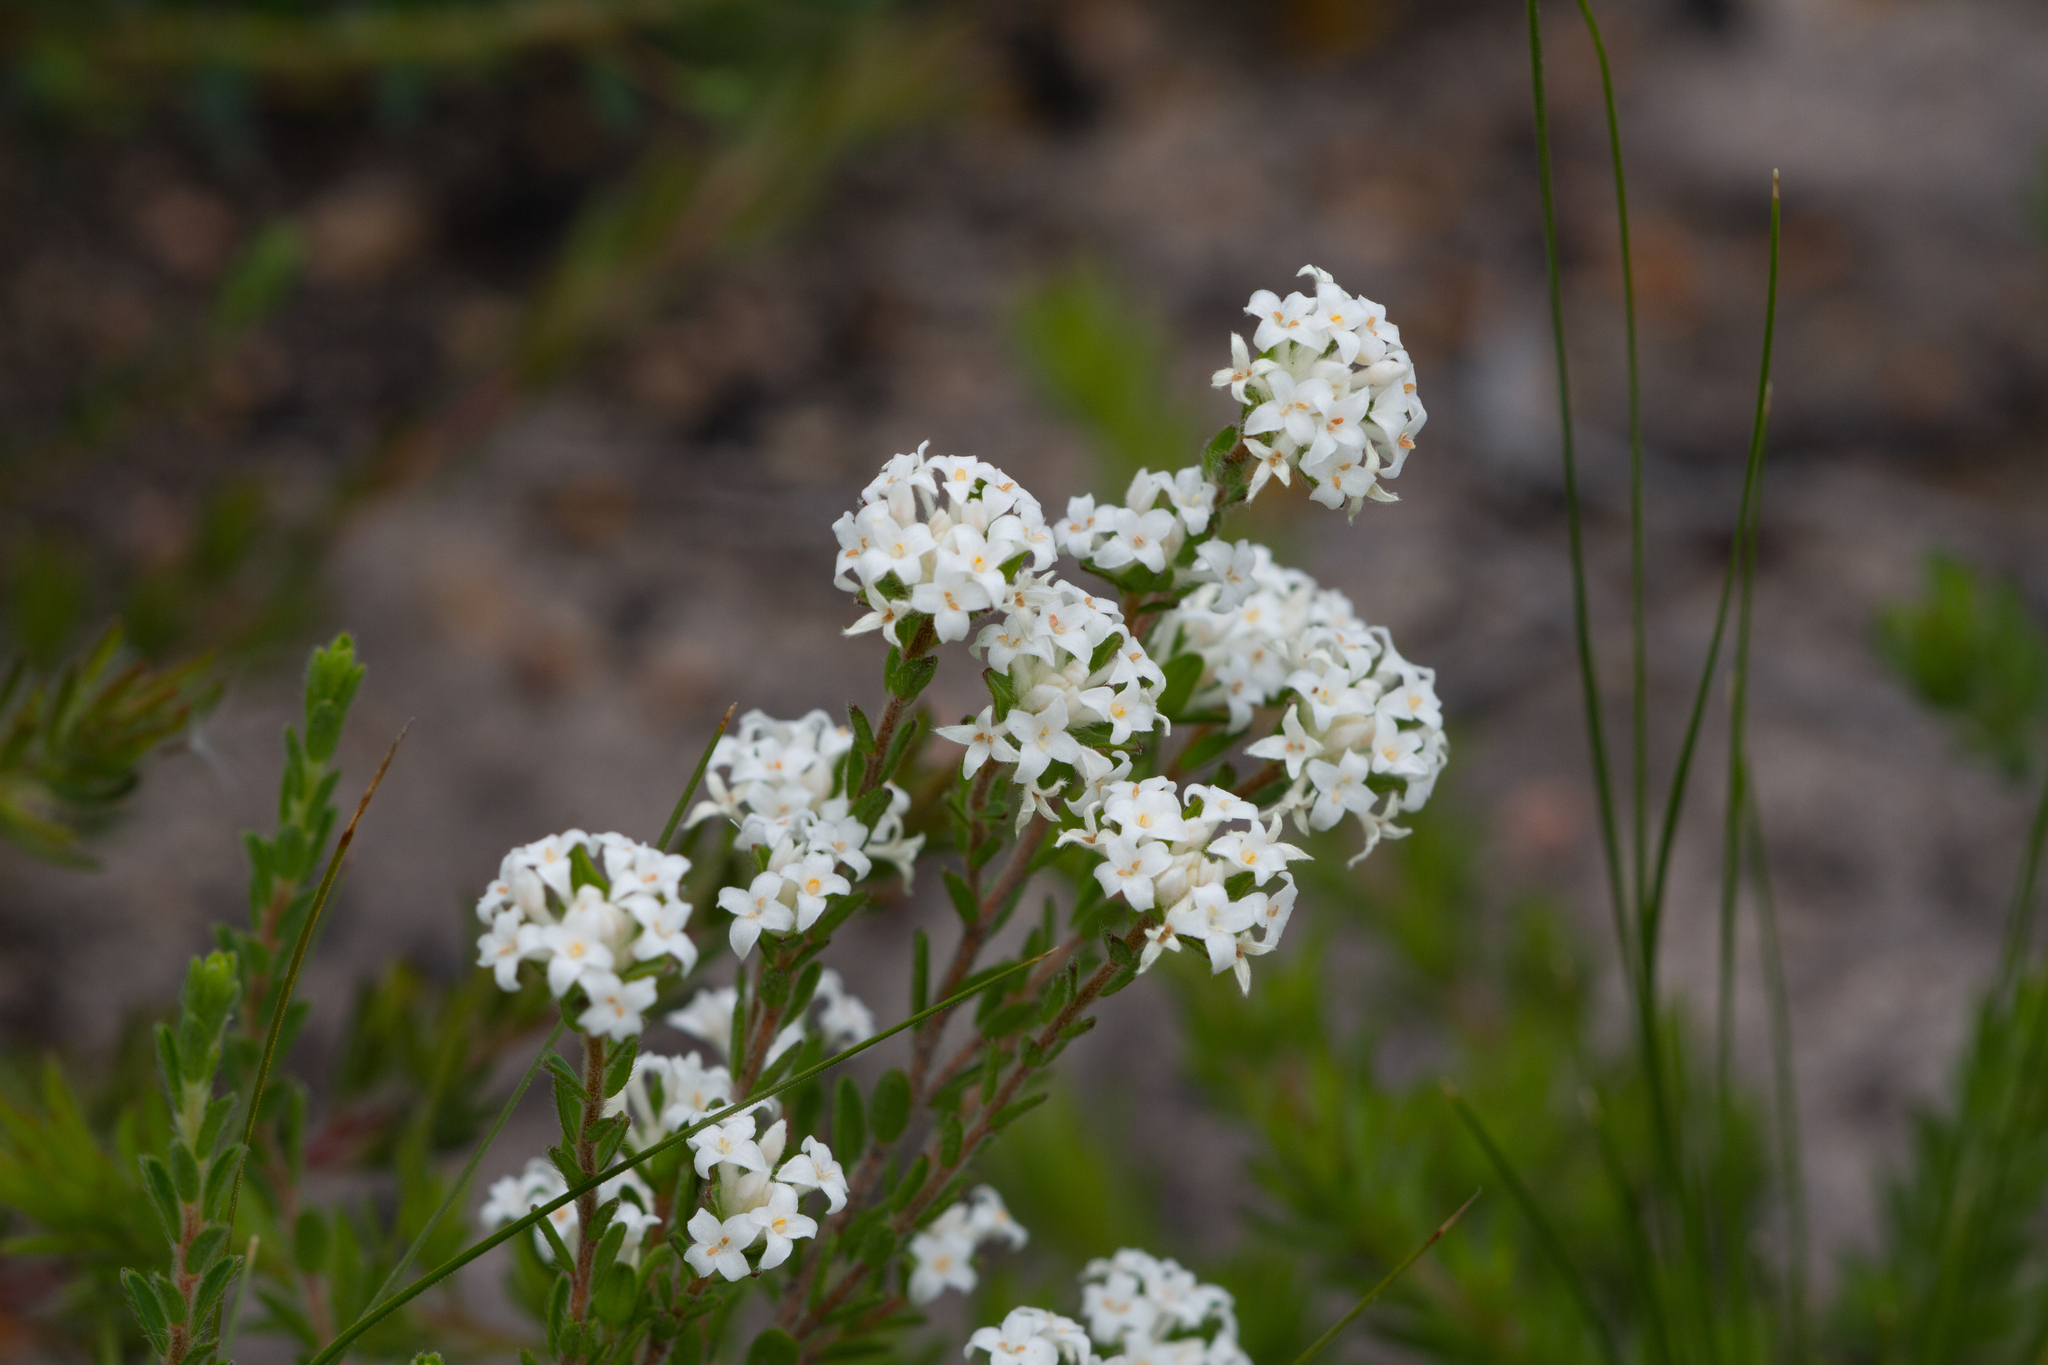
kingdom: Plantae
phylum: Tracheophyta
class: Magnoliopsida
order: Malvales
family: Thymelaeaceae
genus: Pimelea
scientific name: Pimelea phylicoides
